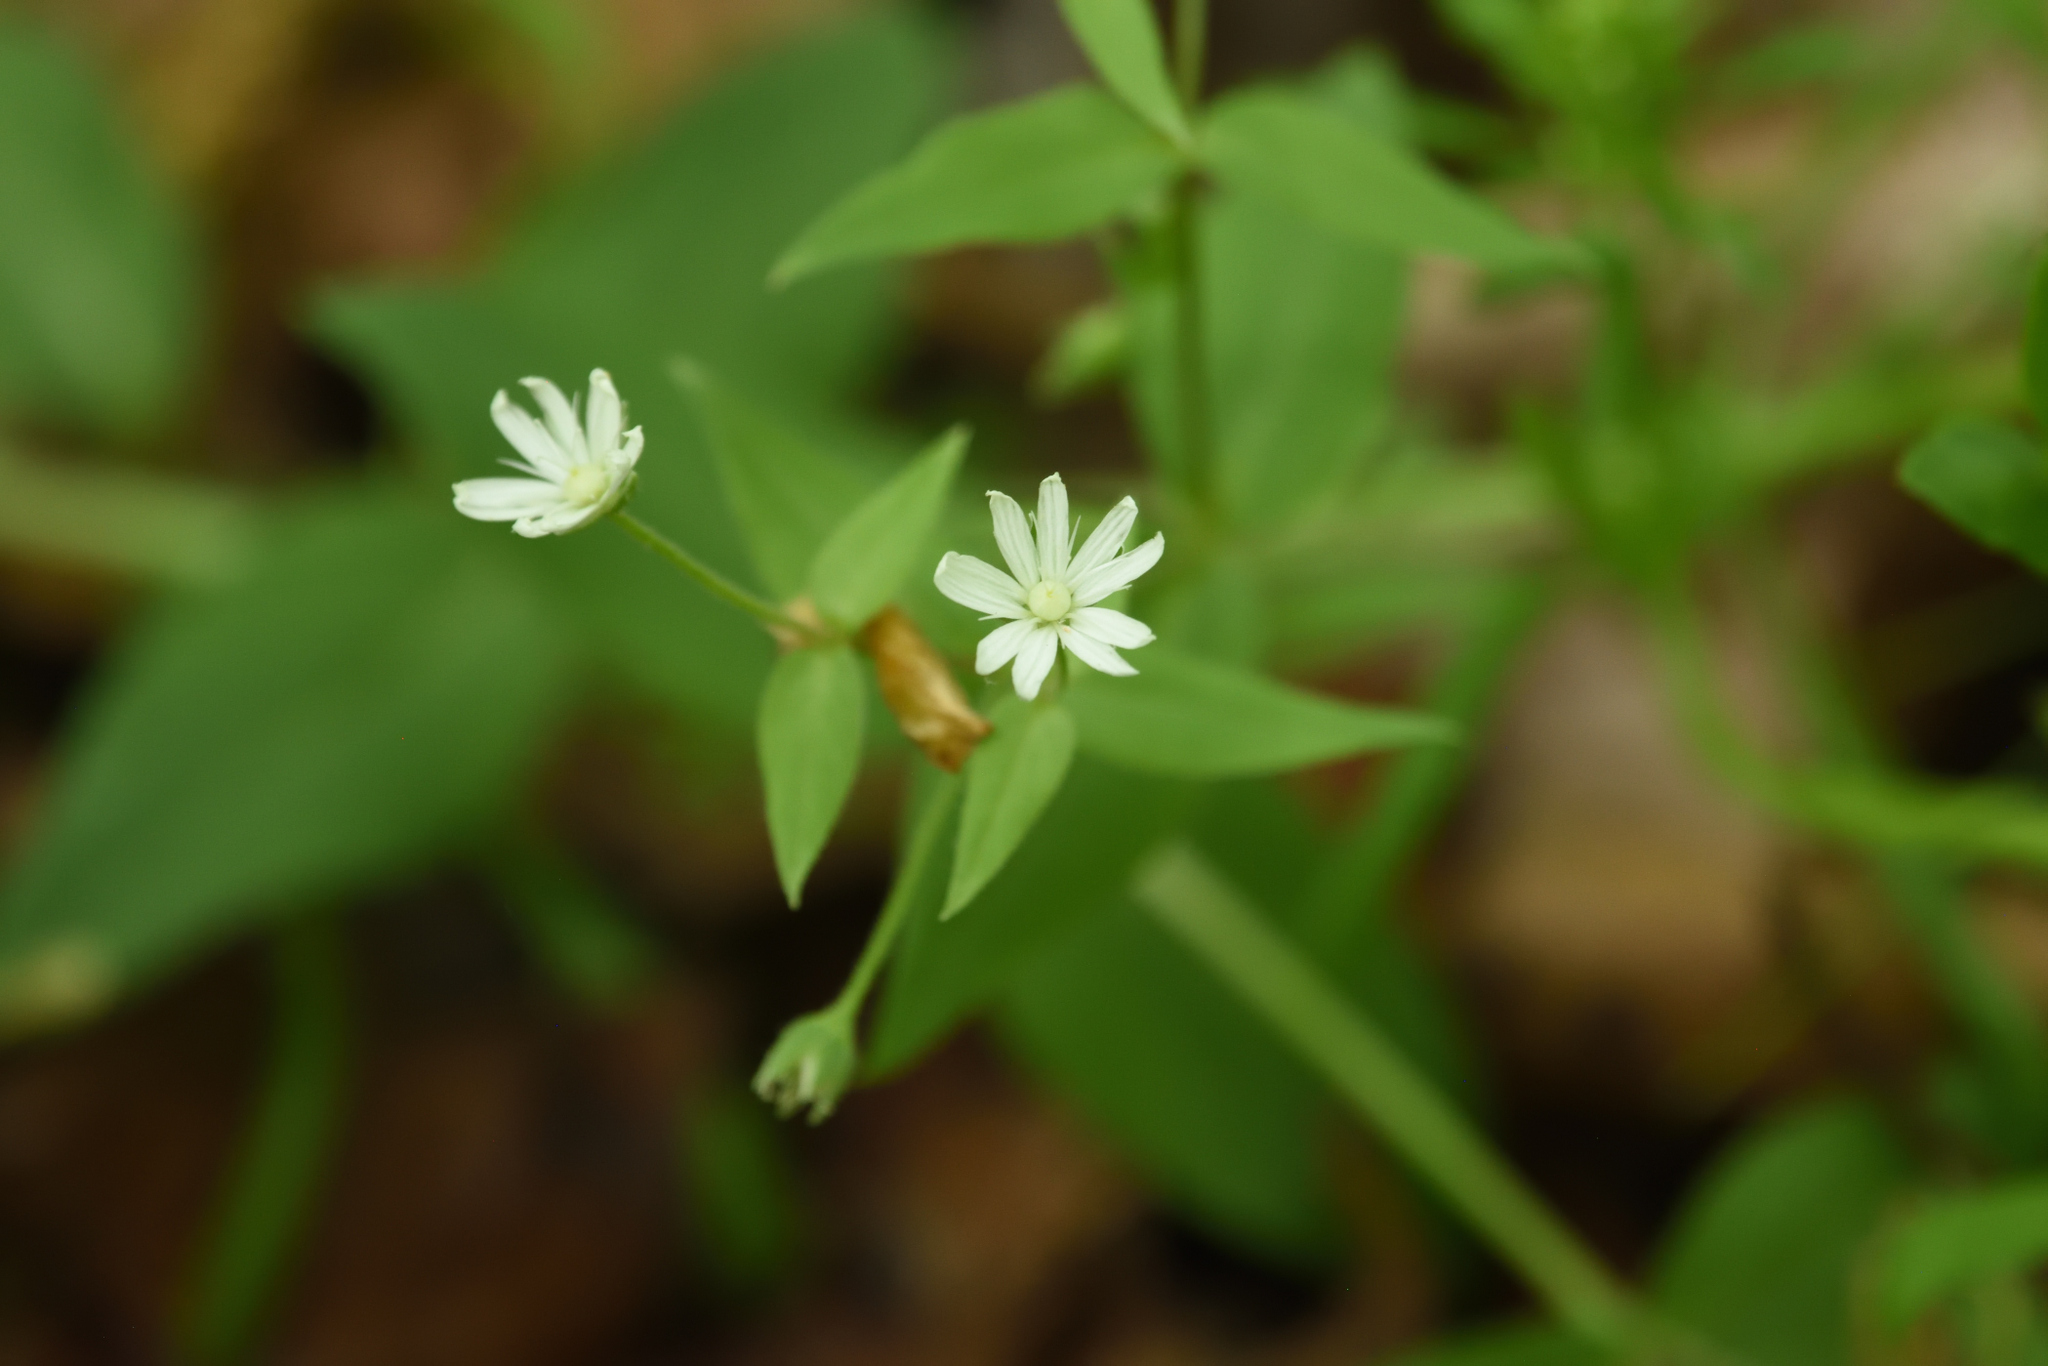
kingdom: Plantae
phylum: Tracheophyta
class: Magnoliopsida
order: Caryophyllales
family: Caryophyllaceae
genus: Stellaria
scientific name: Stellaria pubera
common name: Star chickweed
